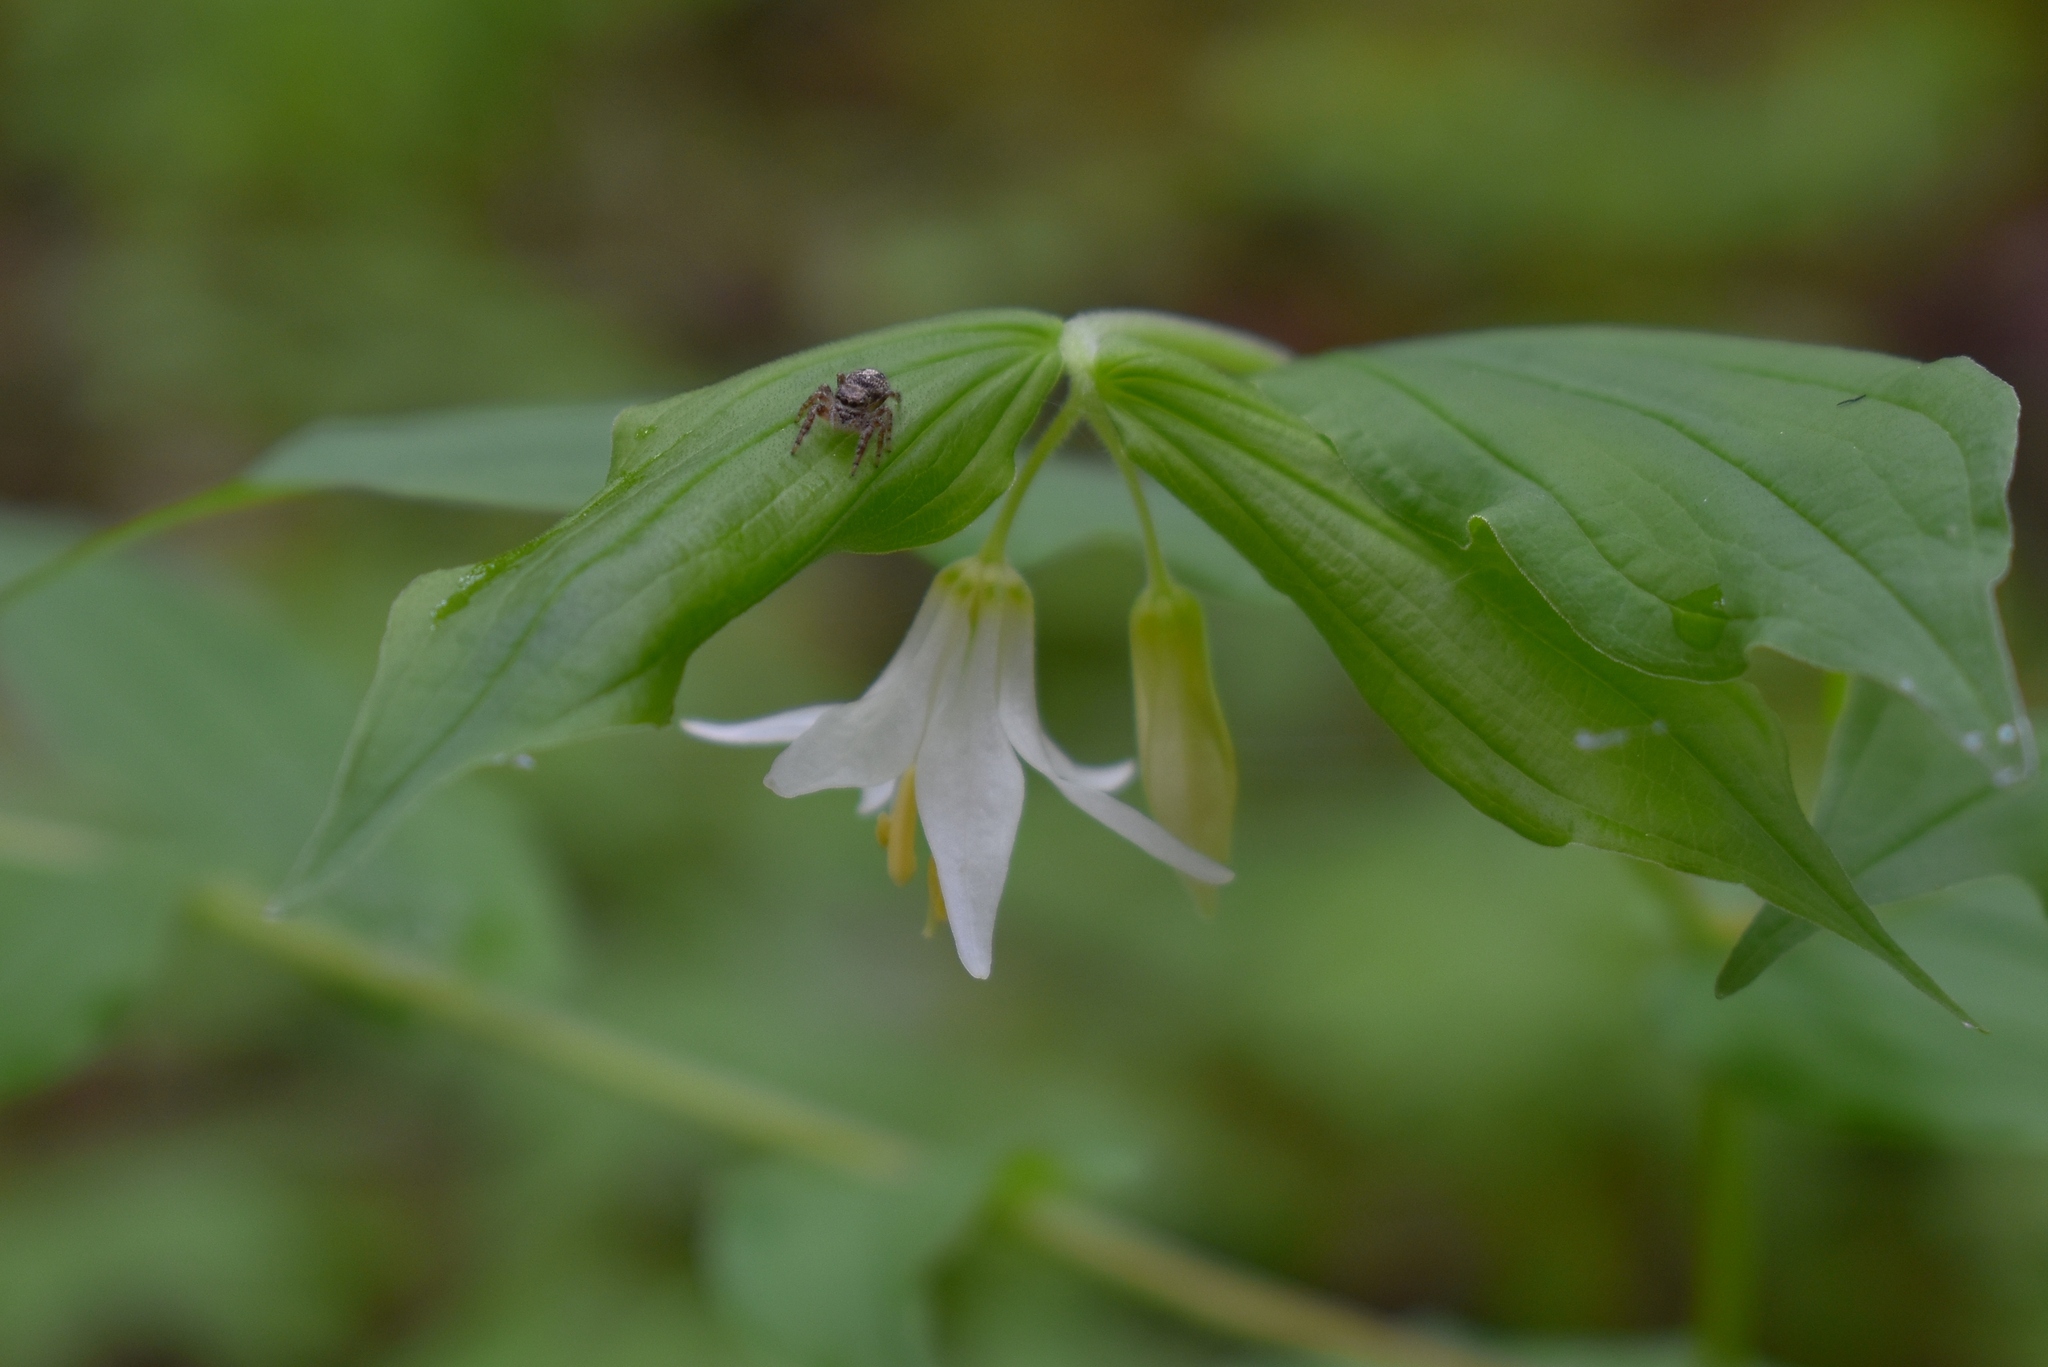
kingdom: Plantae
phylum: Tracheophyta
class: Liliopsida
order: Liliales
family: Liliaceae
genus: Prosartes
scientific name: Prosartes hookeri
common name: Fairy-bells
